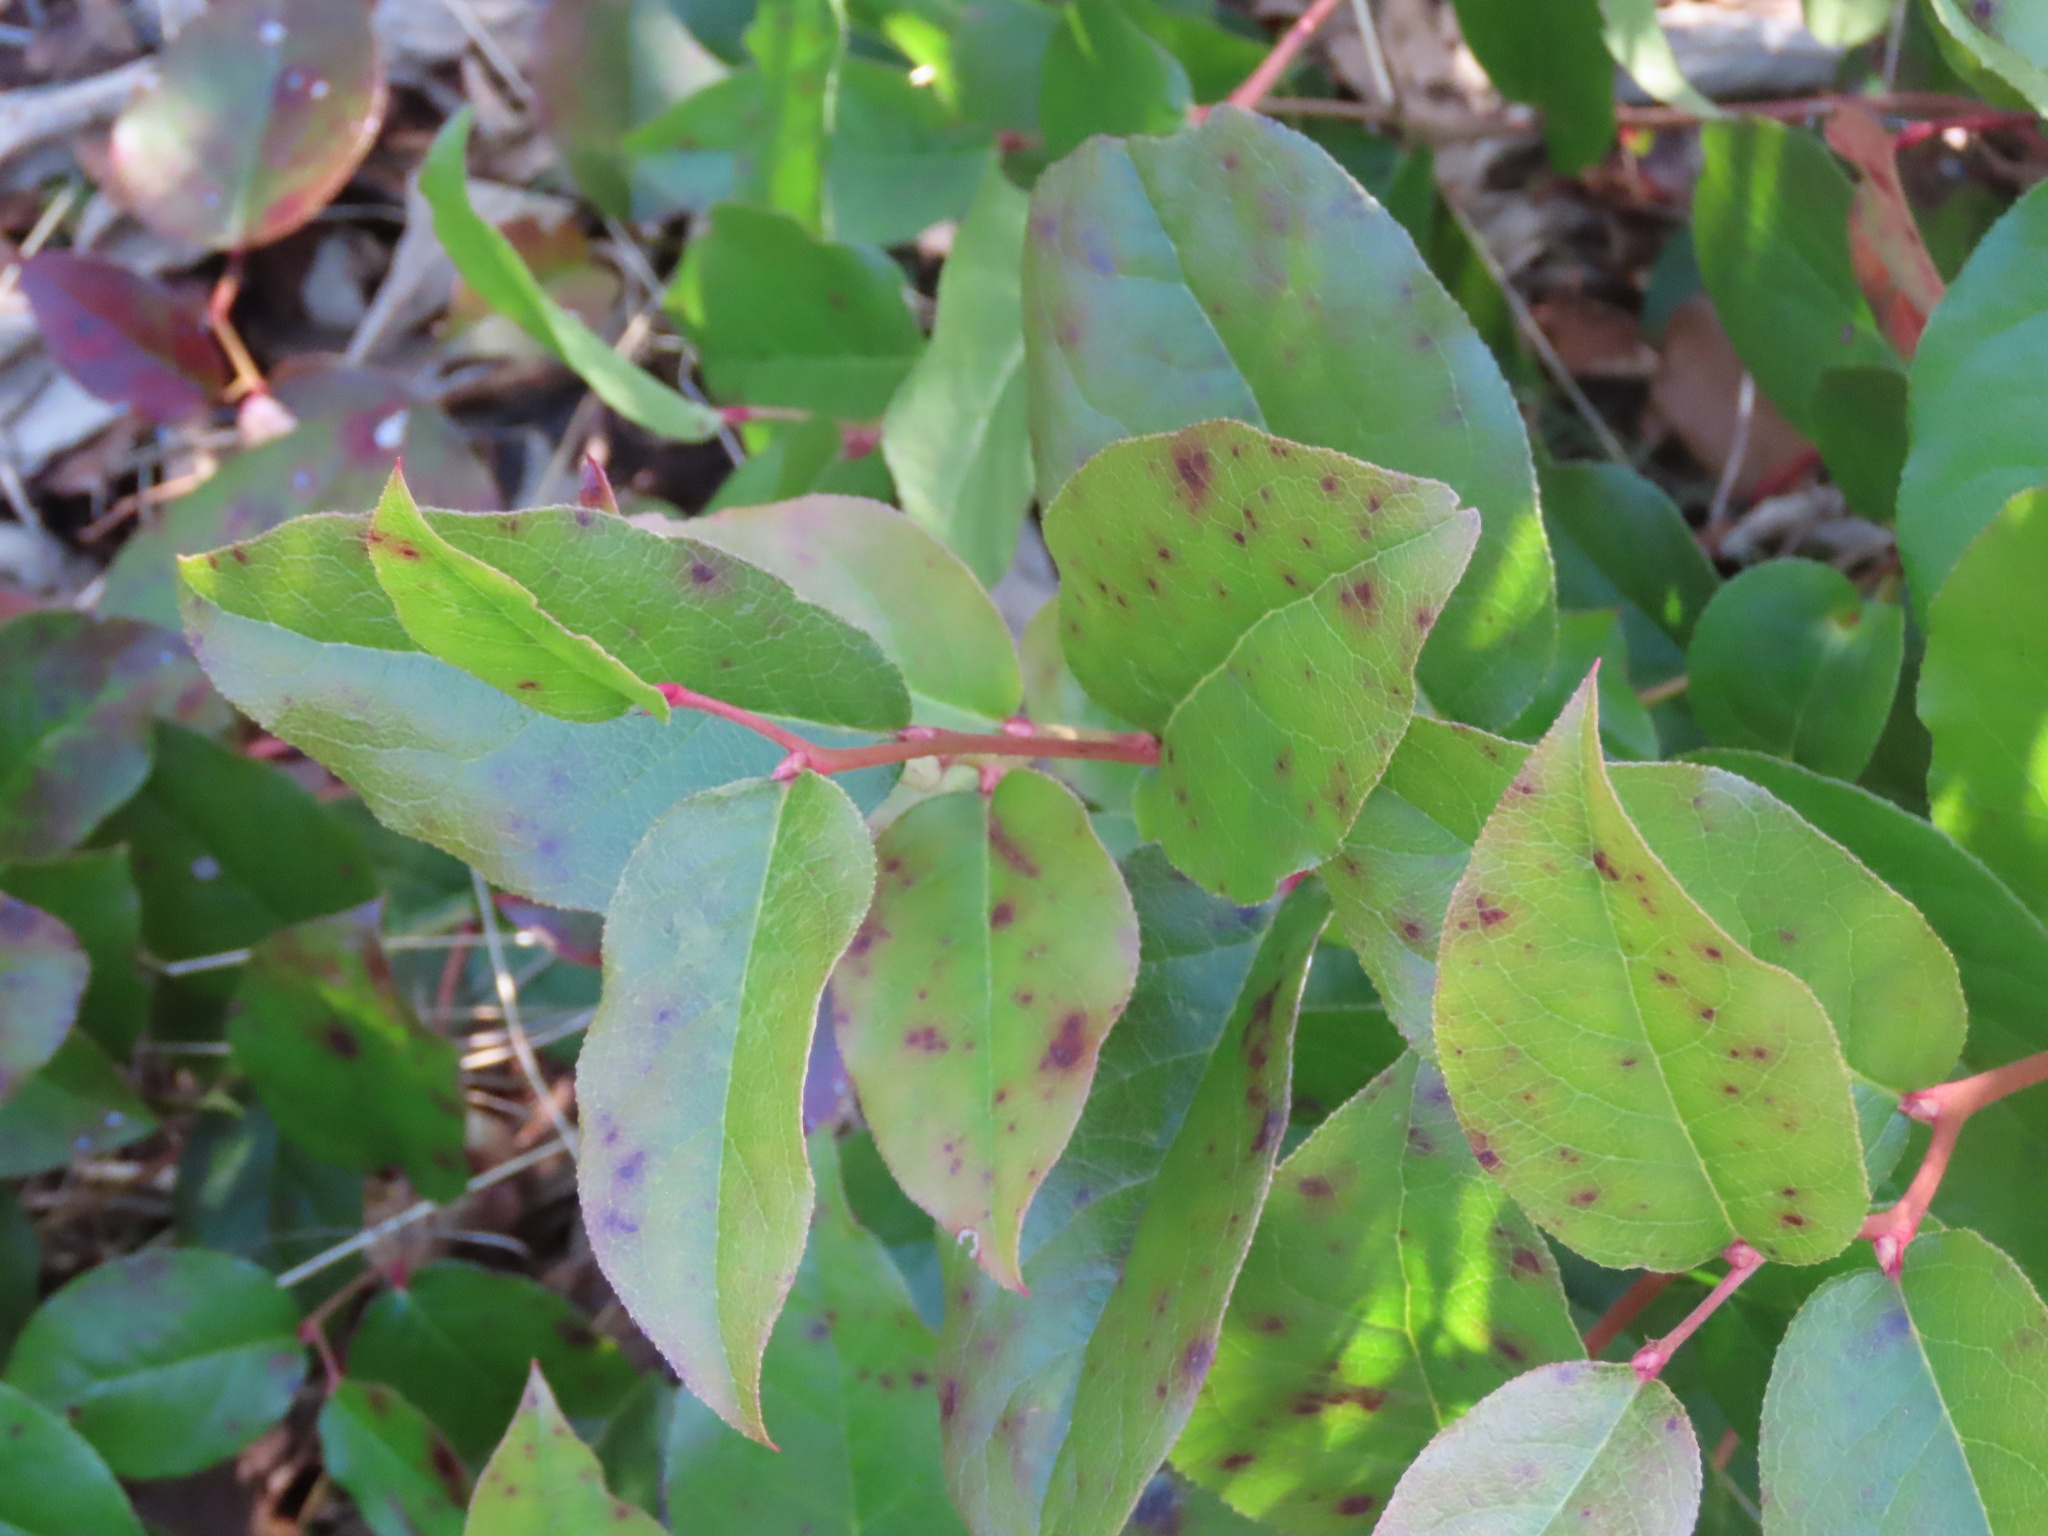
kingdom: Plantae
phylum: Tracheophyta
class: Magnoliopsida
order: Ericales
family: Ericaceae
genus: Gaultheria
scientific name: Gaultheria shallon
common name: Shallon
